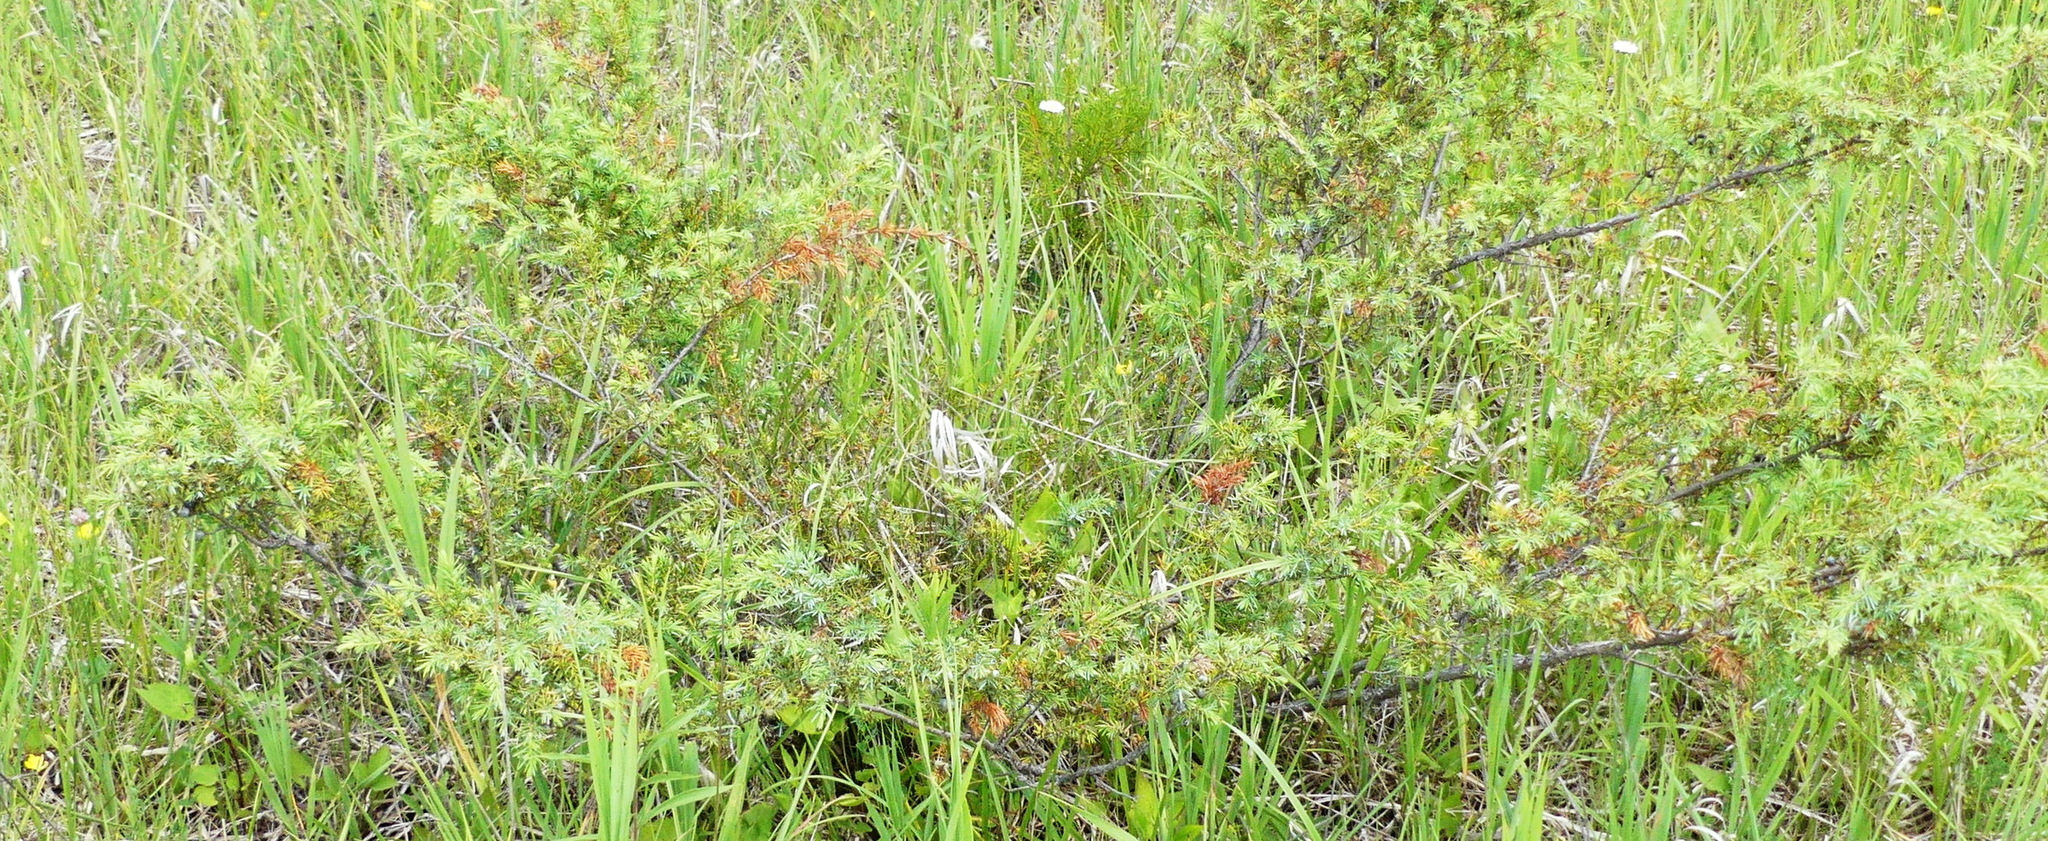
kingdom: Plantae
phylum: Tracheophyta
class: Pinopsida
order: Pinales
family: Cupressaceae
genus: Juniperus
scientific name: Juniperus communis
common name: Common juniper
